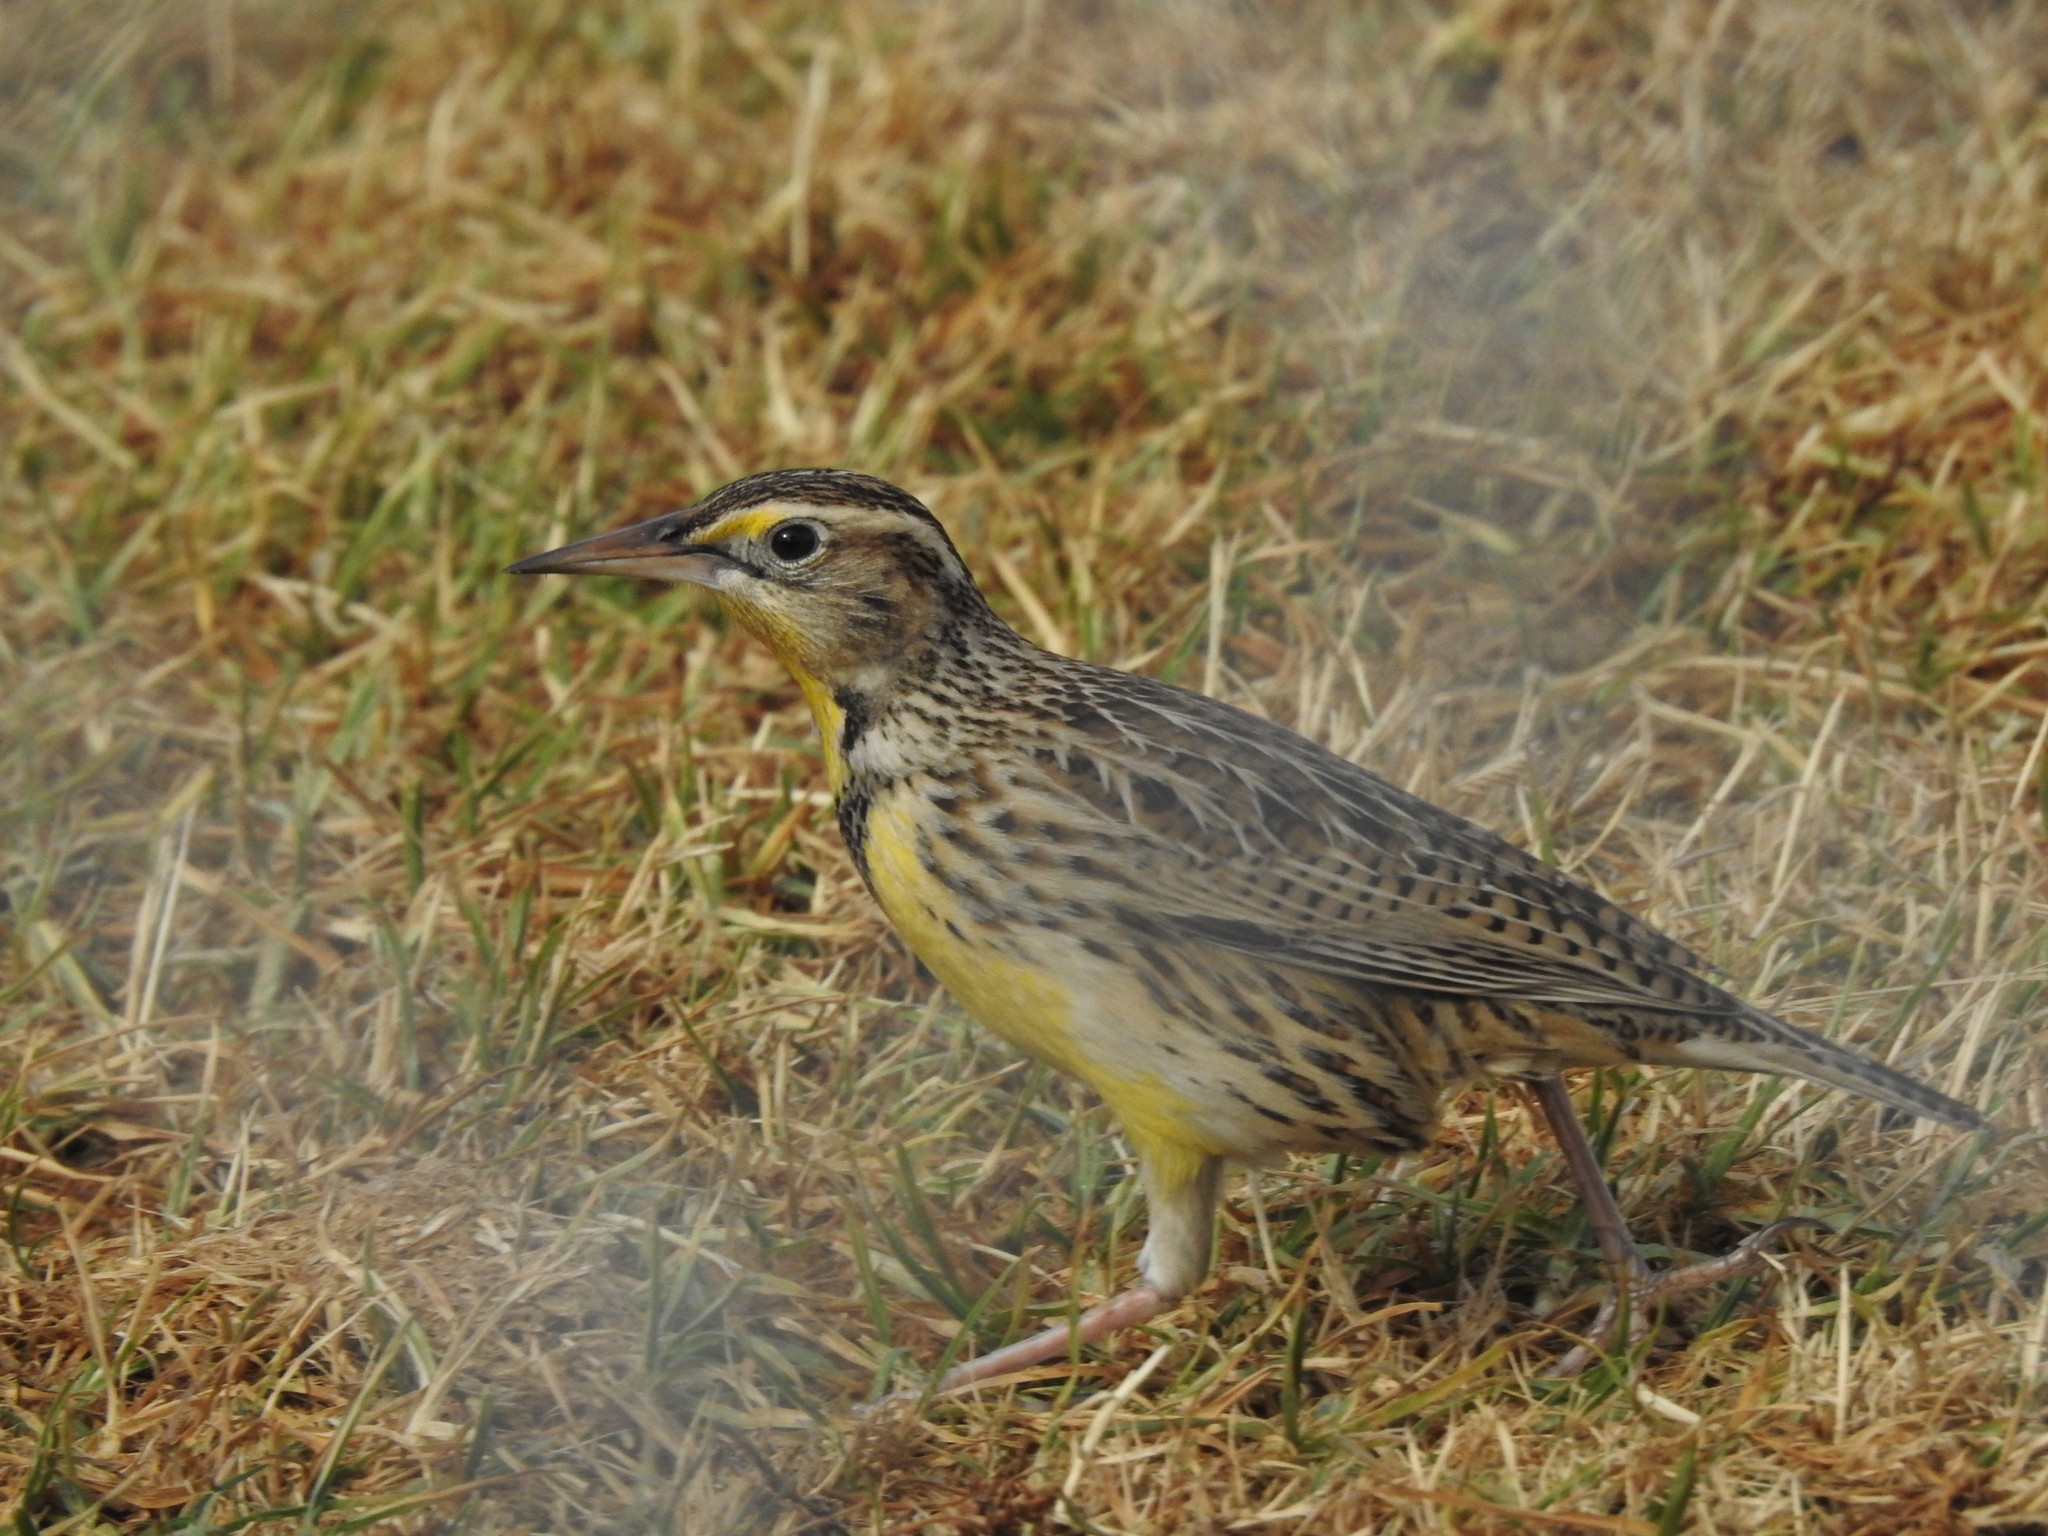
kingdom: Animalia
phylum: Chordata
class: Aves
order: Passeriformes
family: Icteridae
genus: Sturnella
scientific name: Sturnella neglecta
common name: Western meadowlark
